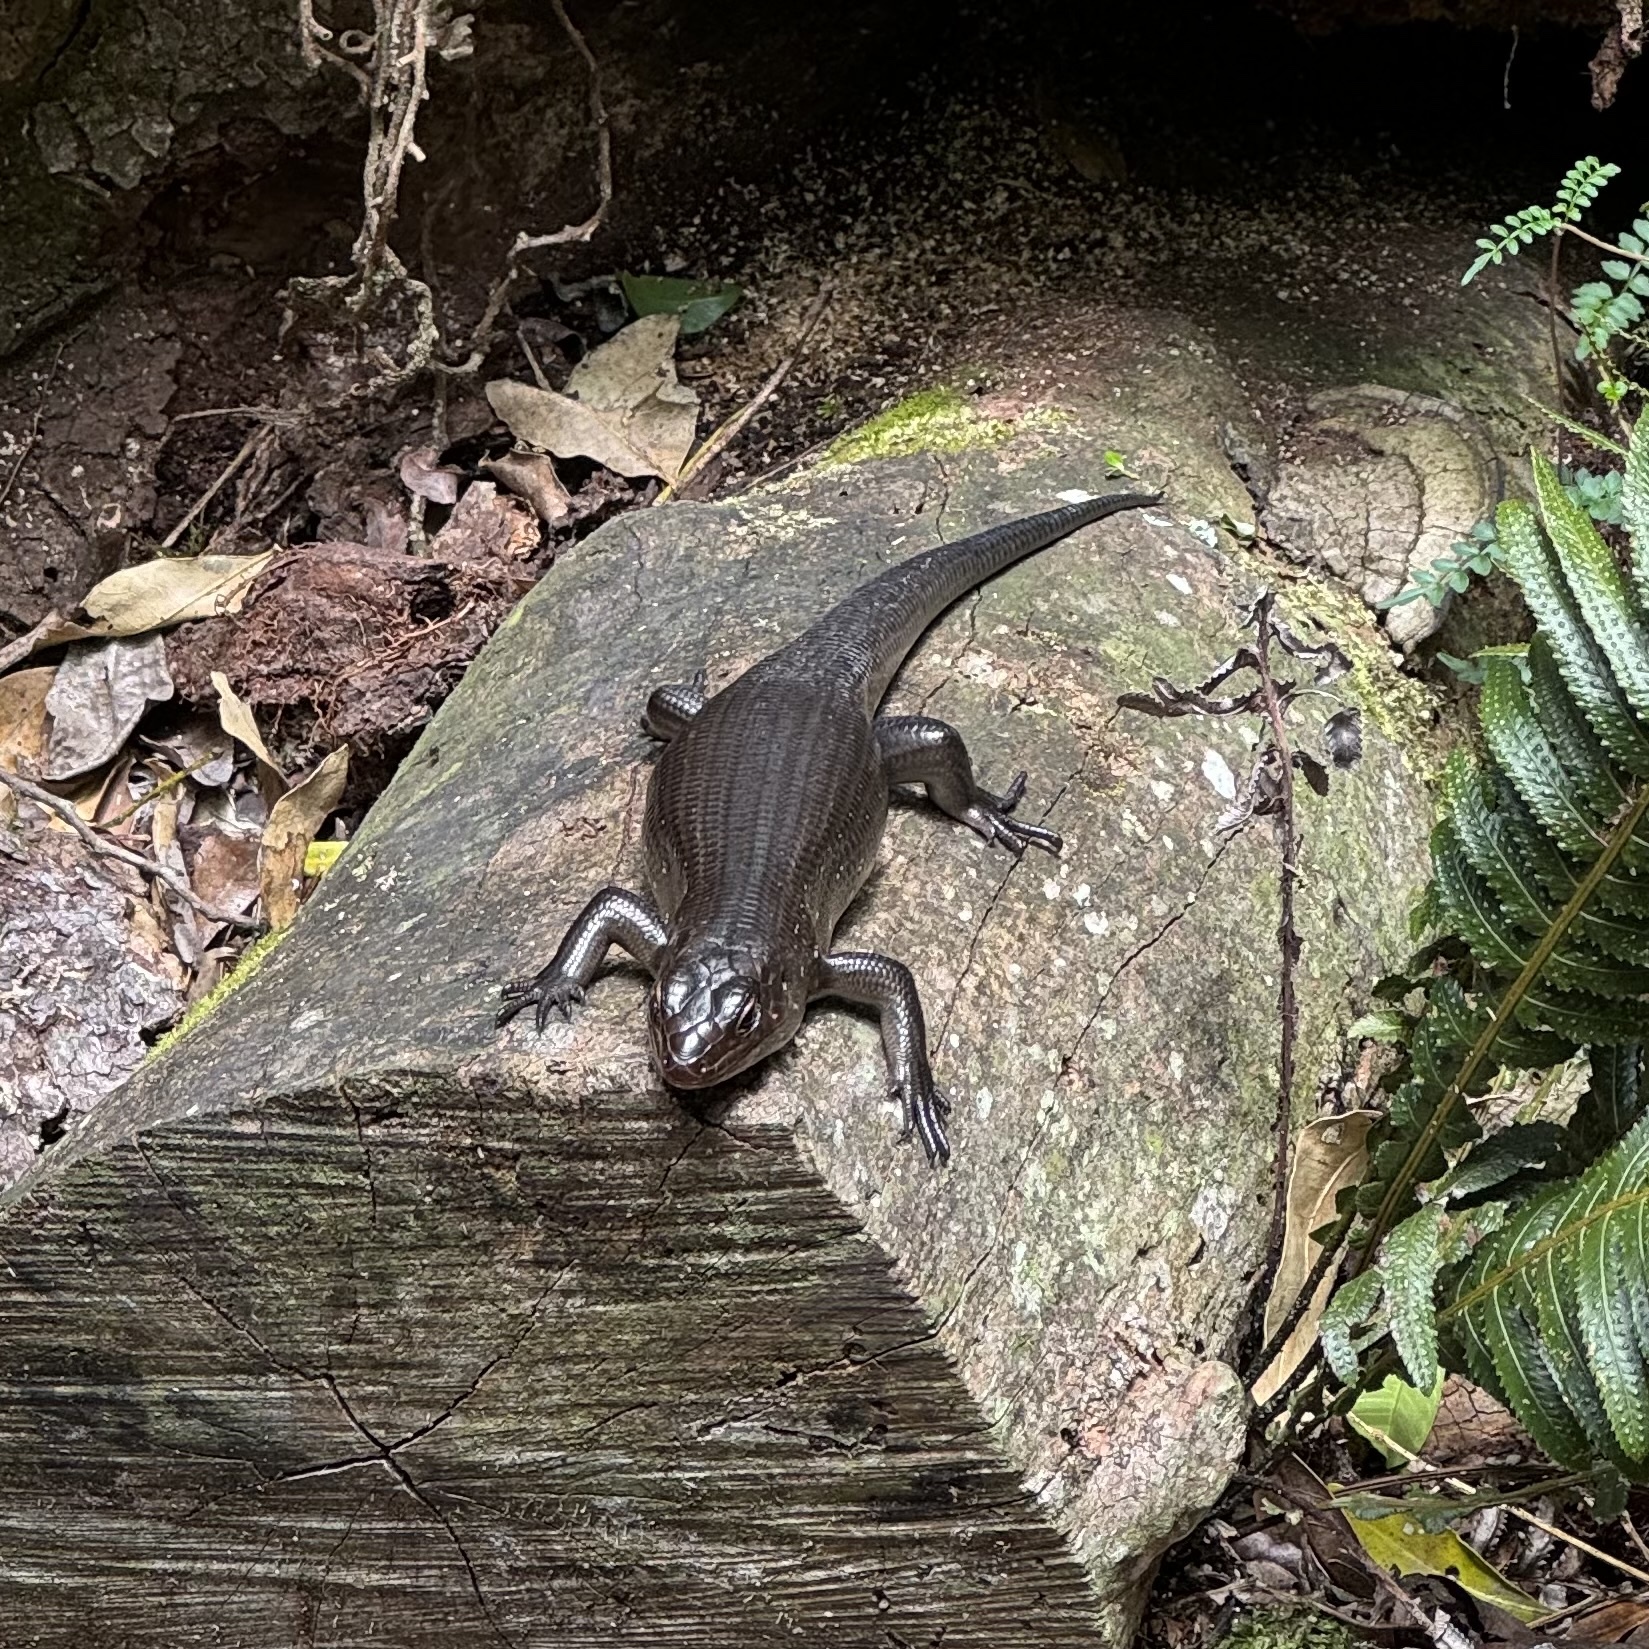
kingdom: Animalia
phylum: Chordata
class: Squamata
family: Scincidae
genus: Bellatorias
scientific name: Bellatorias major
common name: Land mullet
